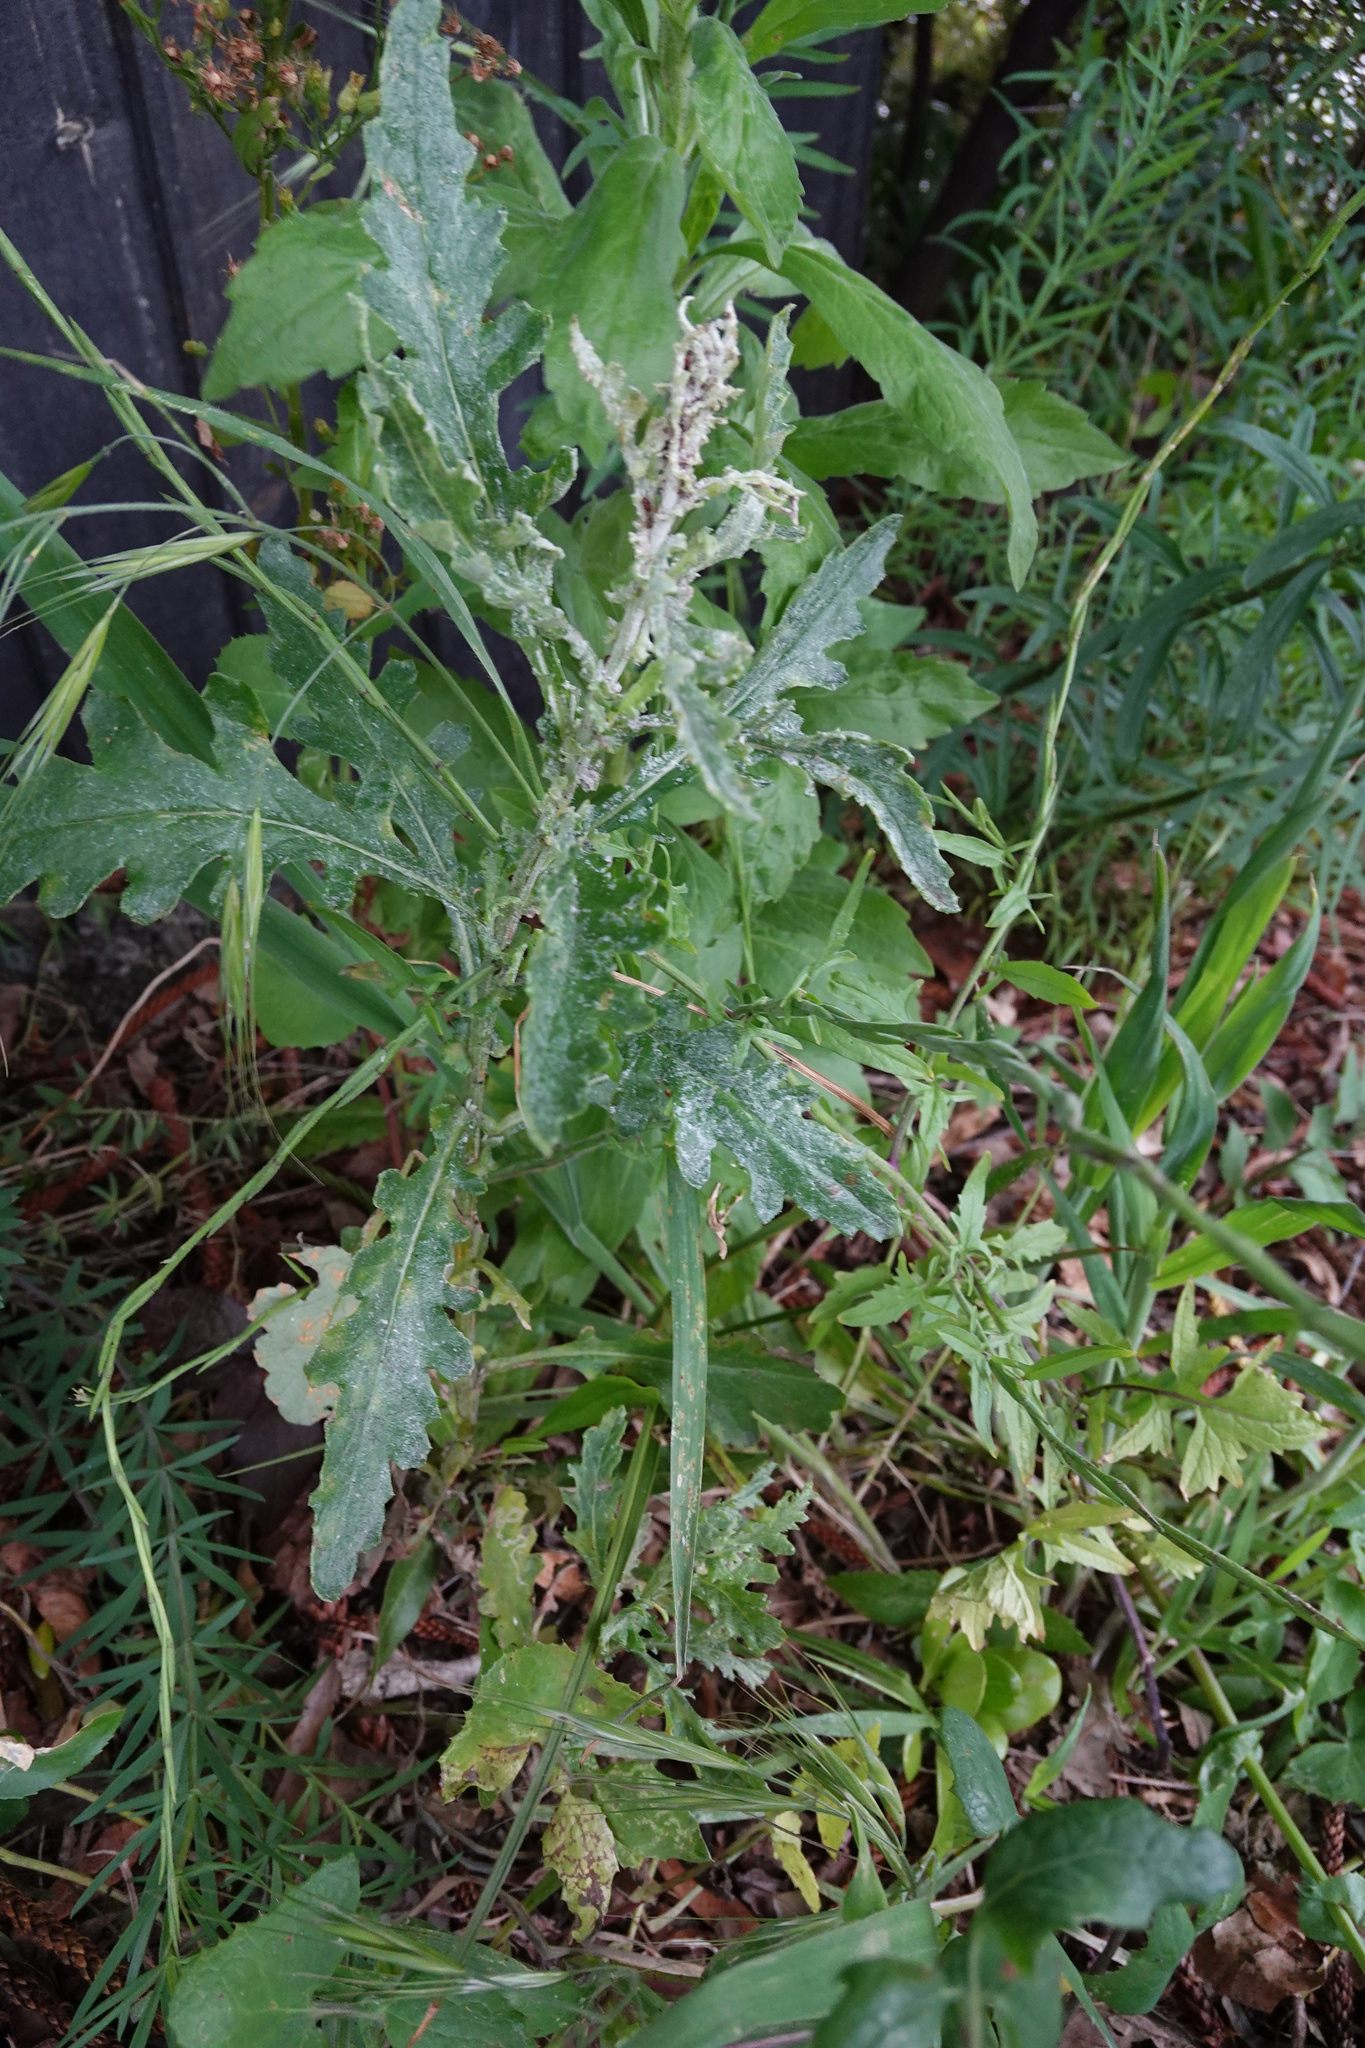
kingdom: Plantae
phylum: Tracheophyta
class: Magnoliopsida
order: Asterales
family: Asteraceae
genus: Senecio
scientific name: Senecio glomeratus
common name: Cutleaf burnweed
